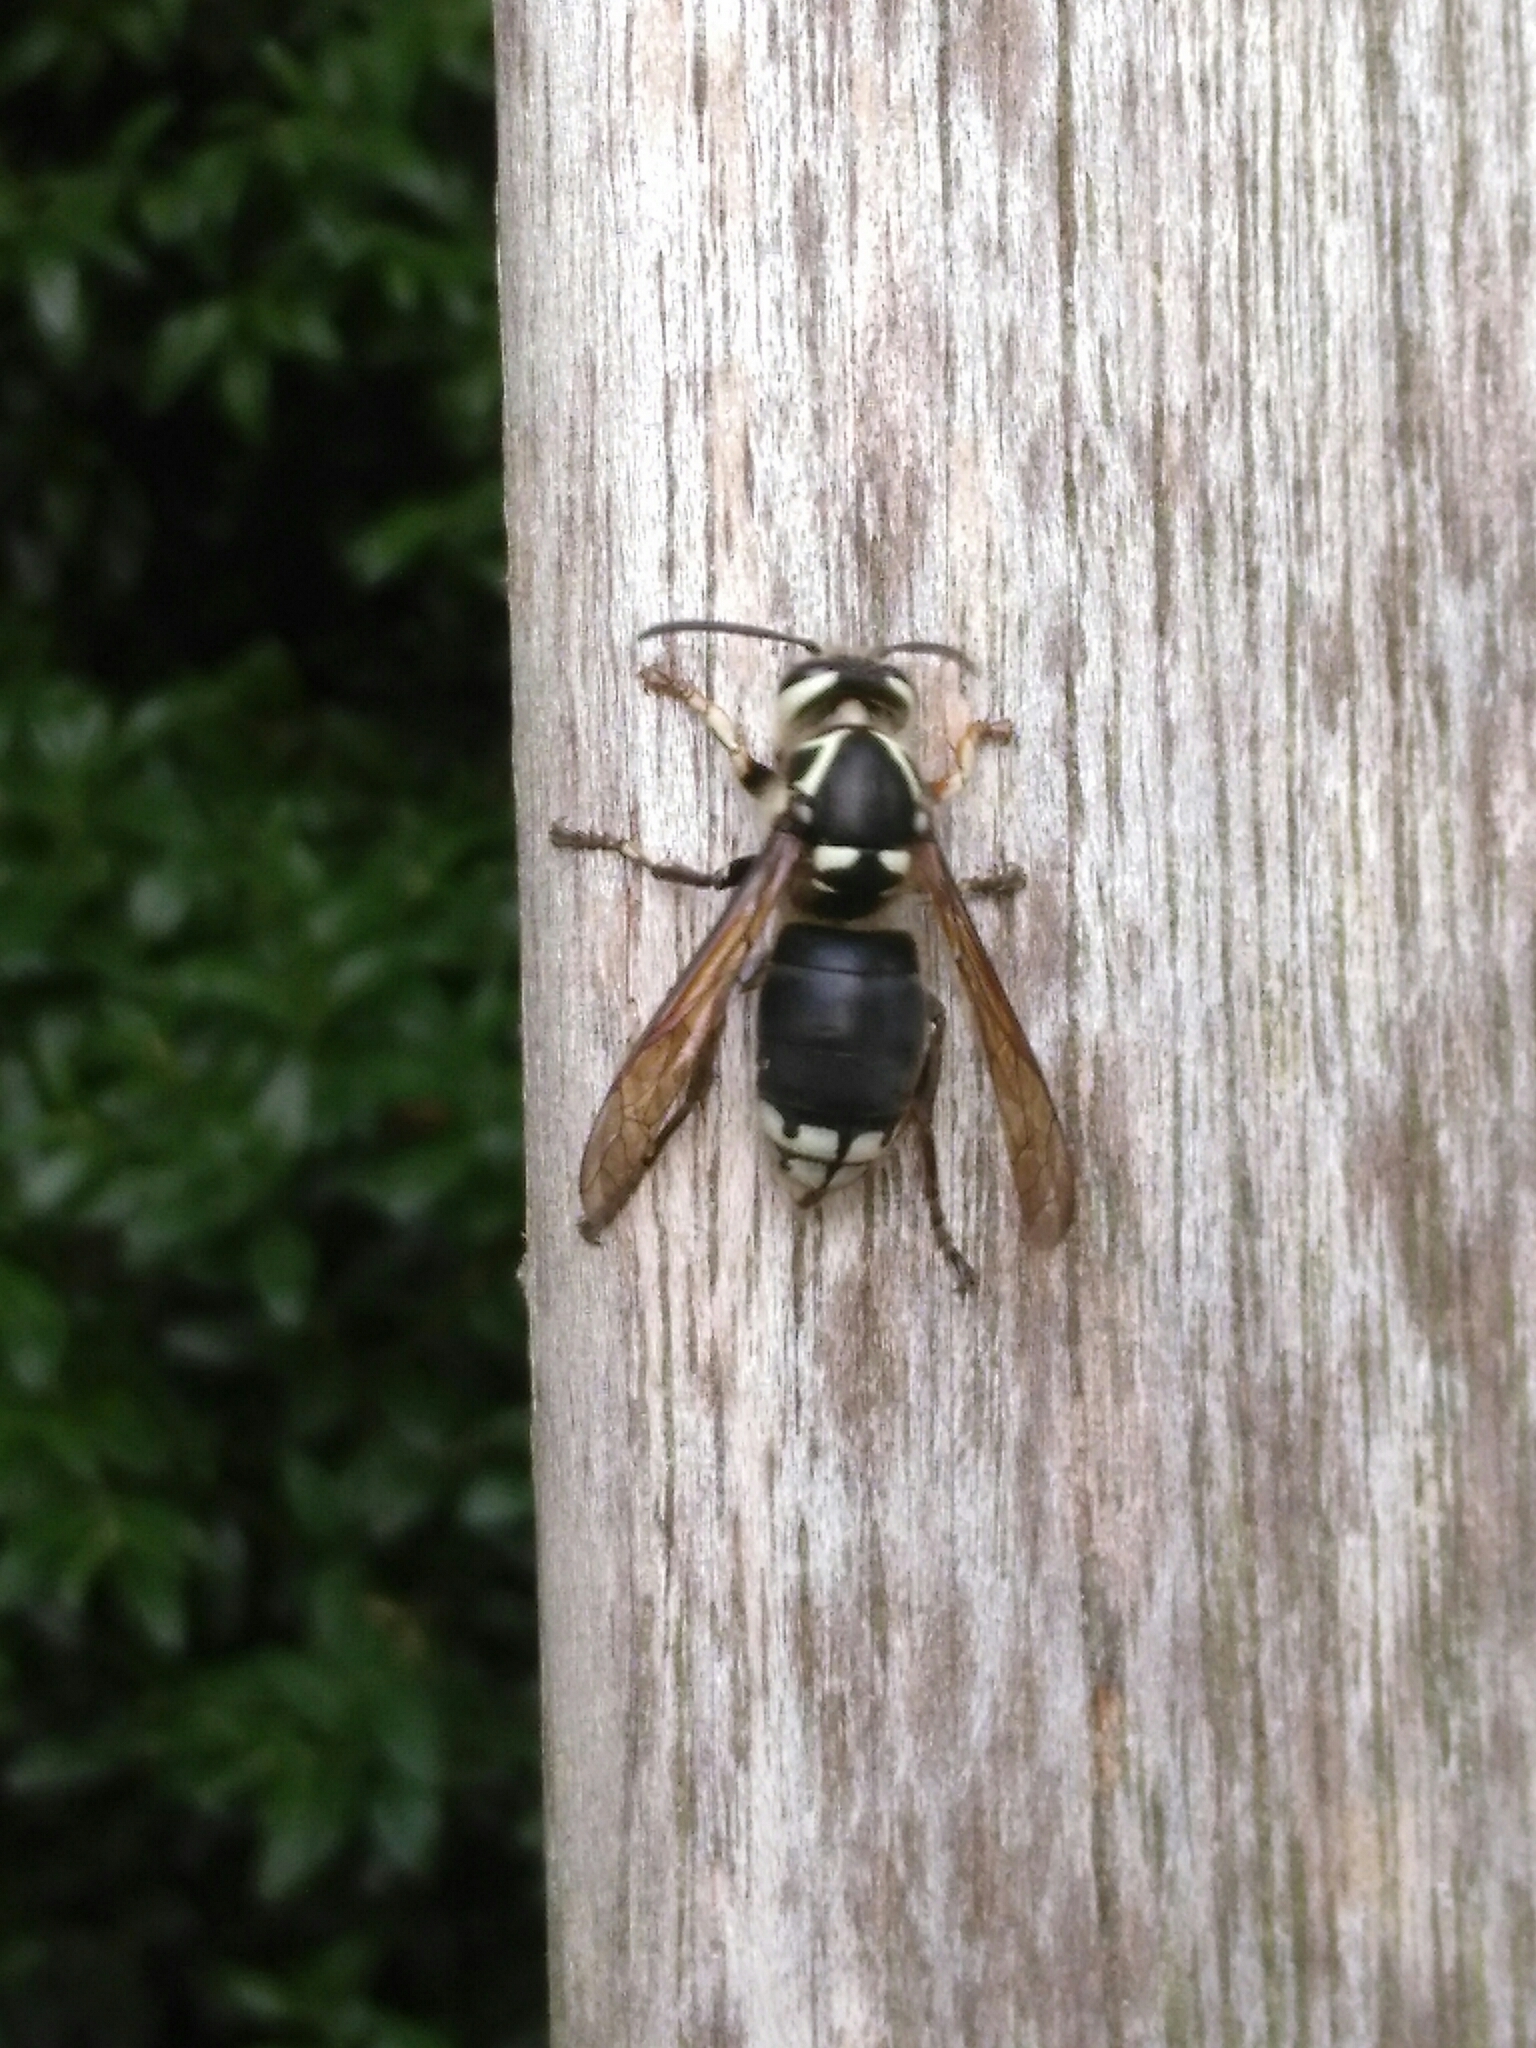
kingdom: Animalia
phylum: Arthropoda
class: Insecta
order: Hymenoptera
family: Vespidae
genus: Dolichovespula
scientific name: Dolichovespula maculata
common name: Bald-faced hornet
